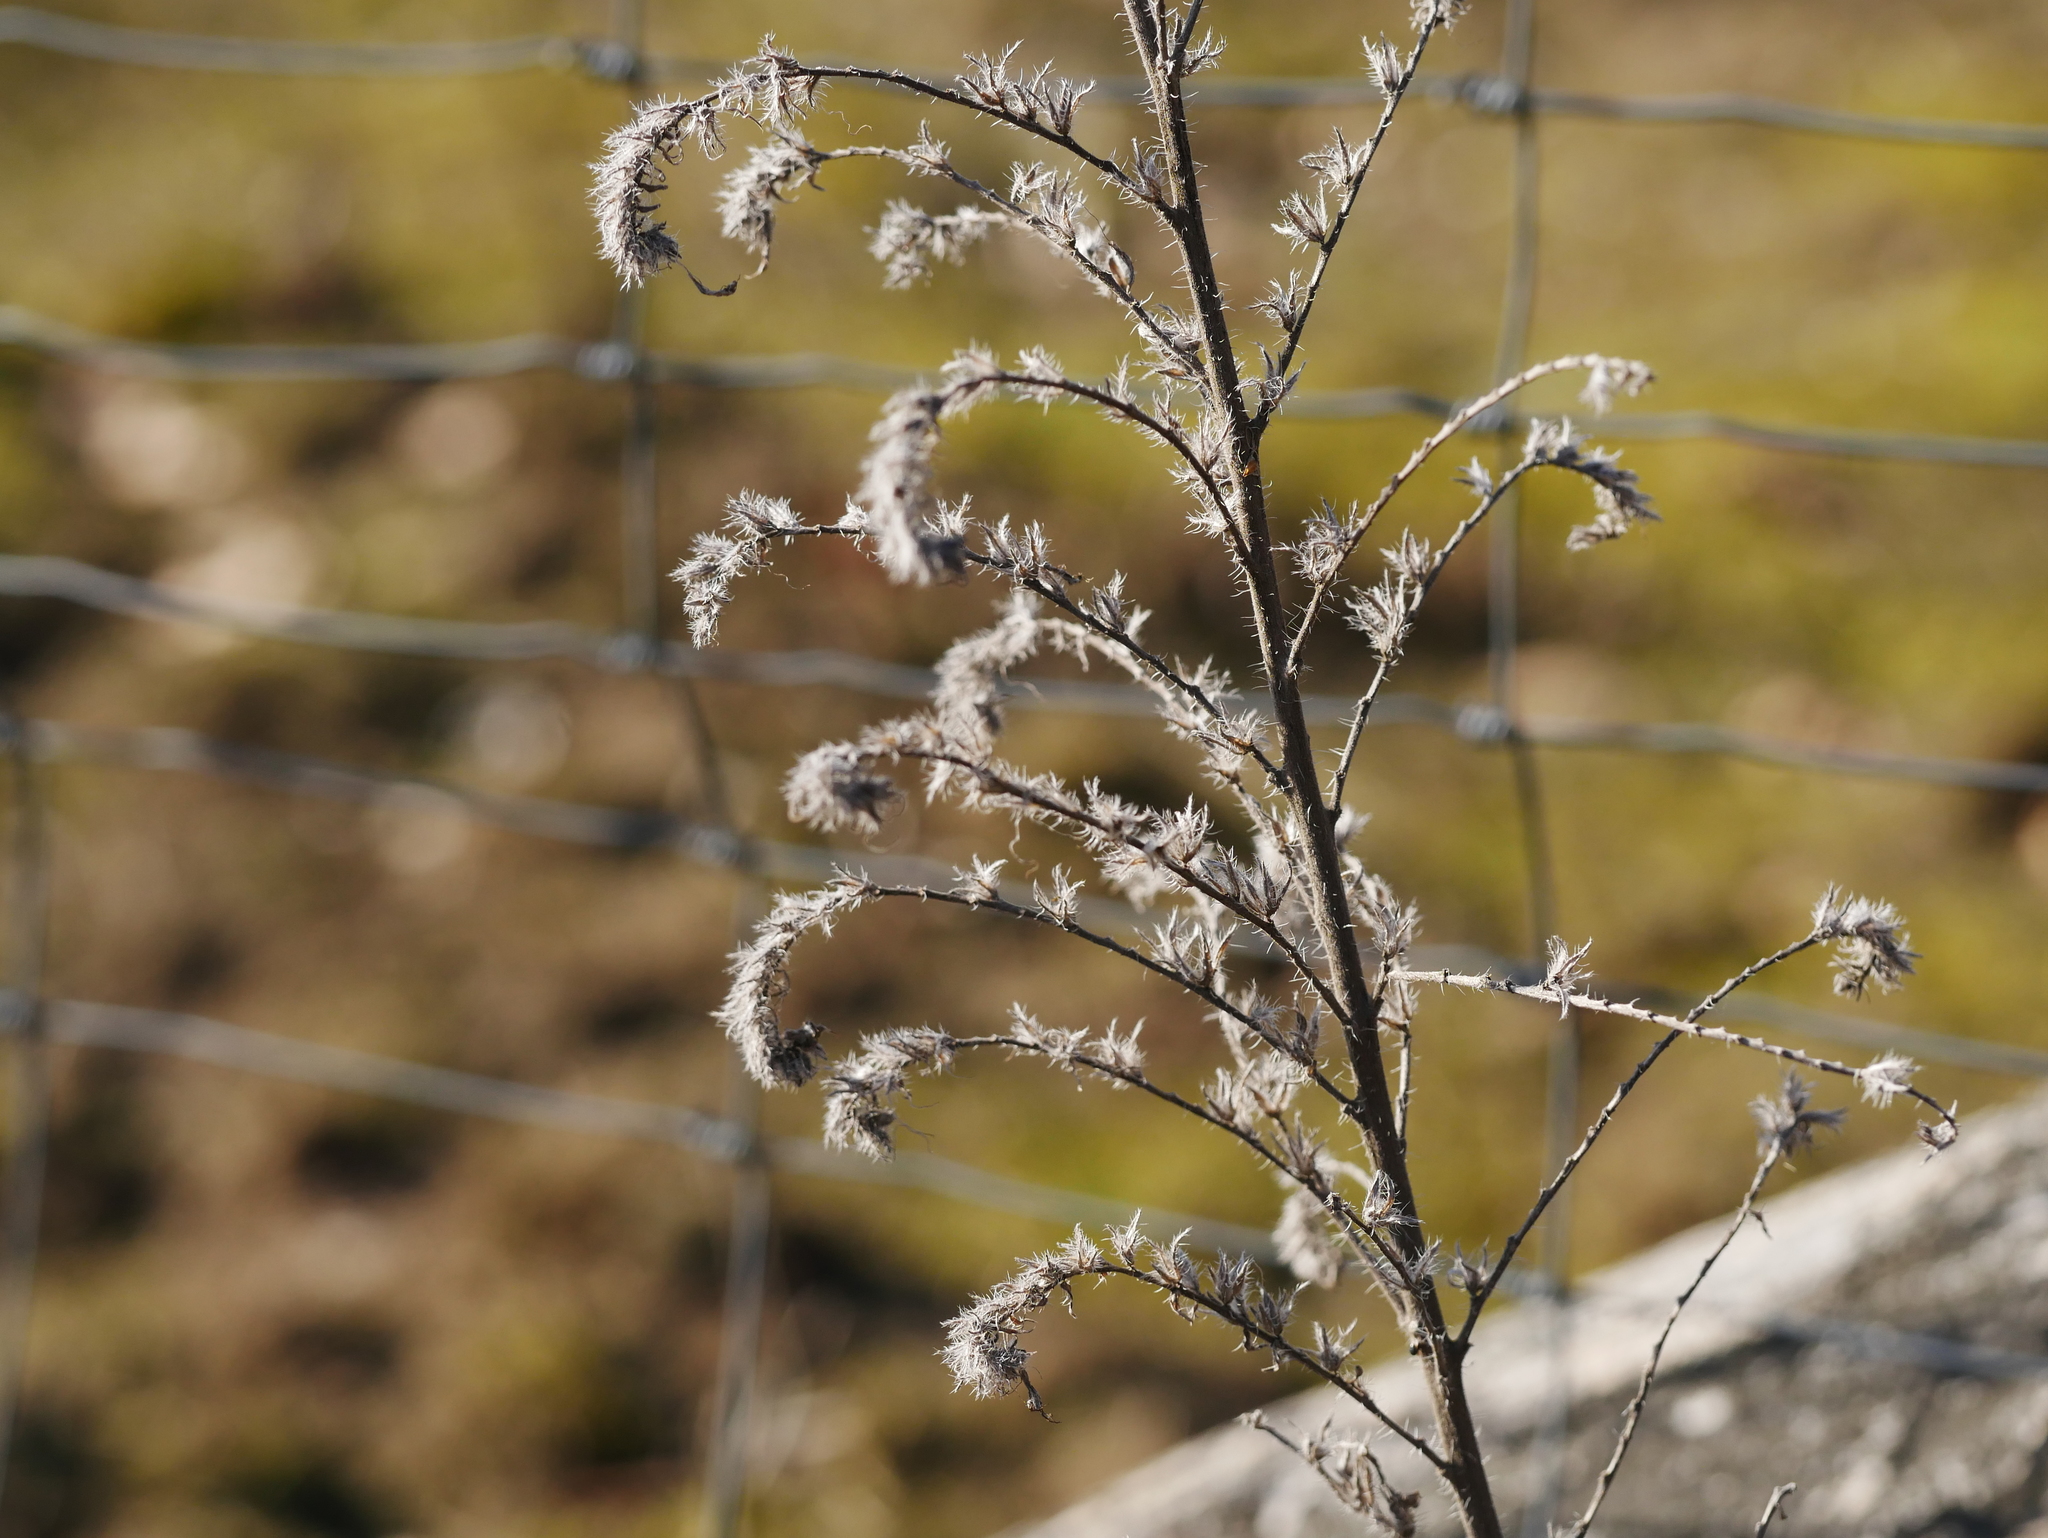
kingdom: Plantae
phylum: Tracheophyta
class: Magnoliopsida
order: Boraginales
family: Boraginaceae
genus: Echium
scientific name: Echium vulgare
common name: Common viper's bugloss
